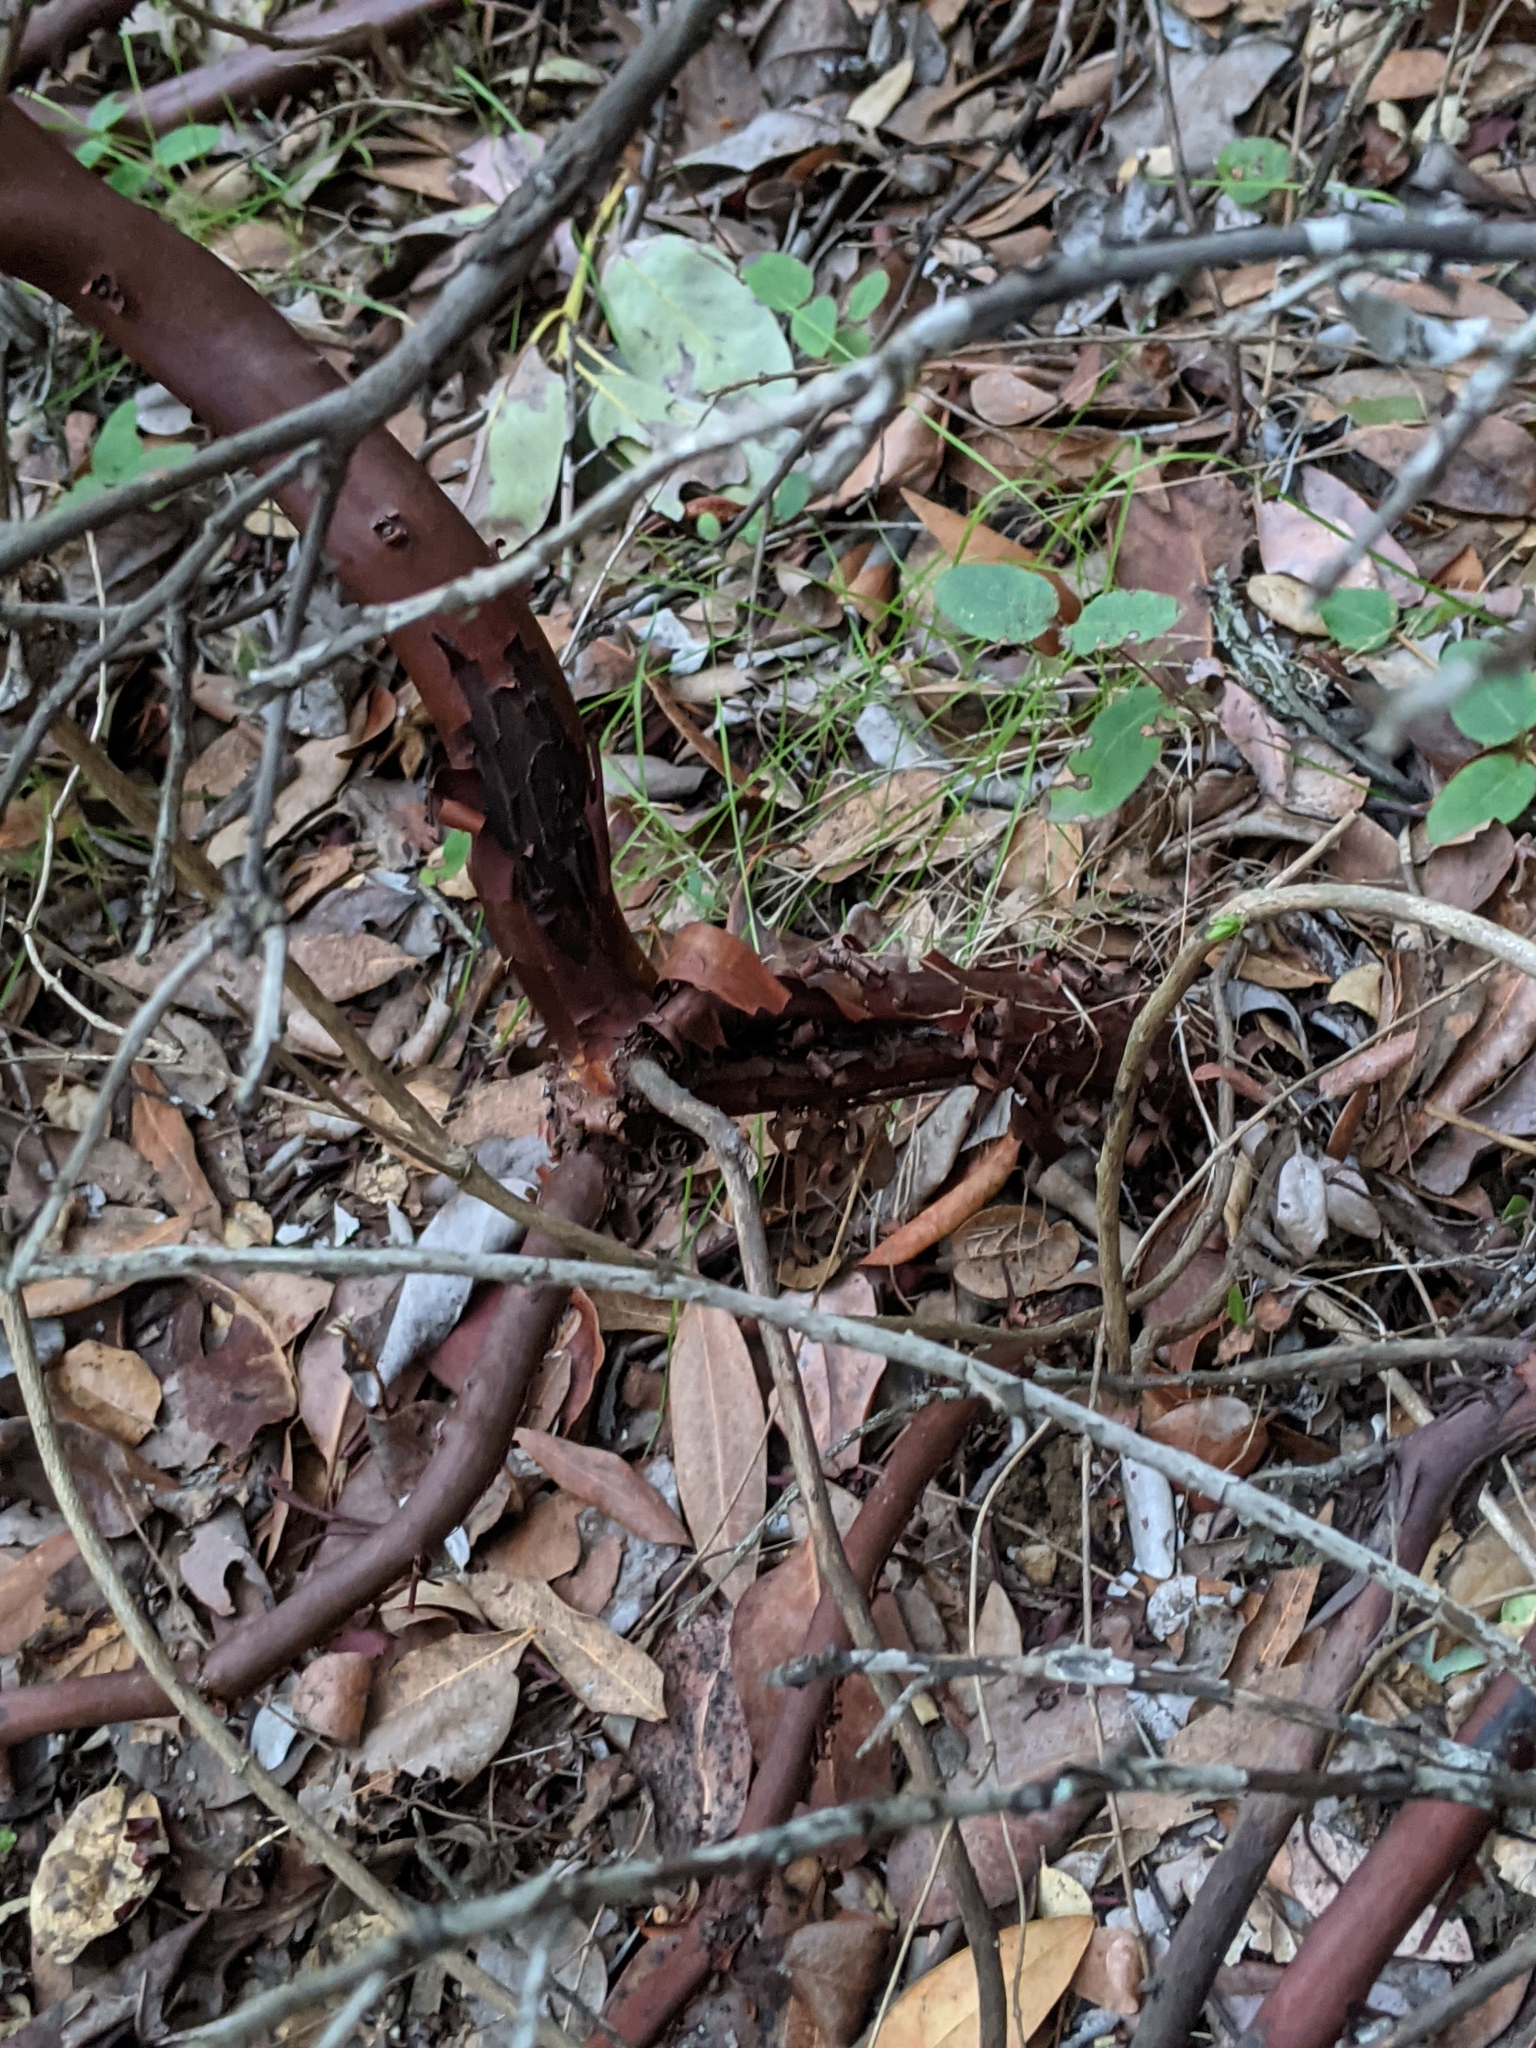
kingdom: Plantae
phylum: Tracheophyta
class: Magnoliopsida
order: Ericales
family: Ericaceae
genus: Arctostaphylos
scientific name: Arctostaphylos crustacea
